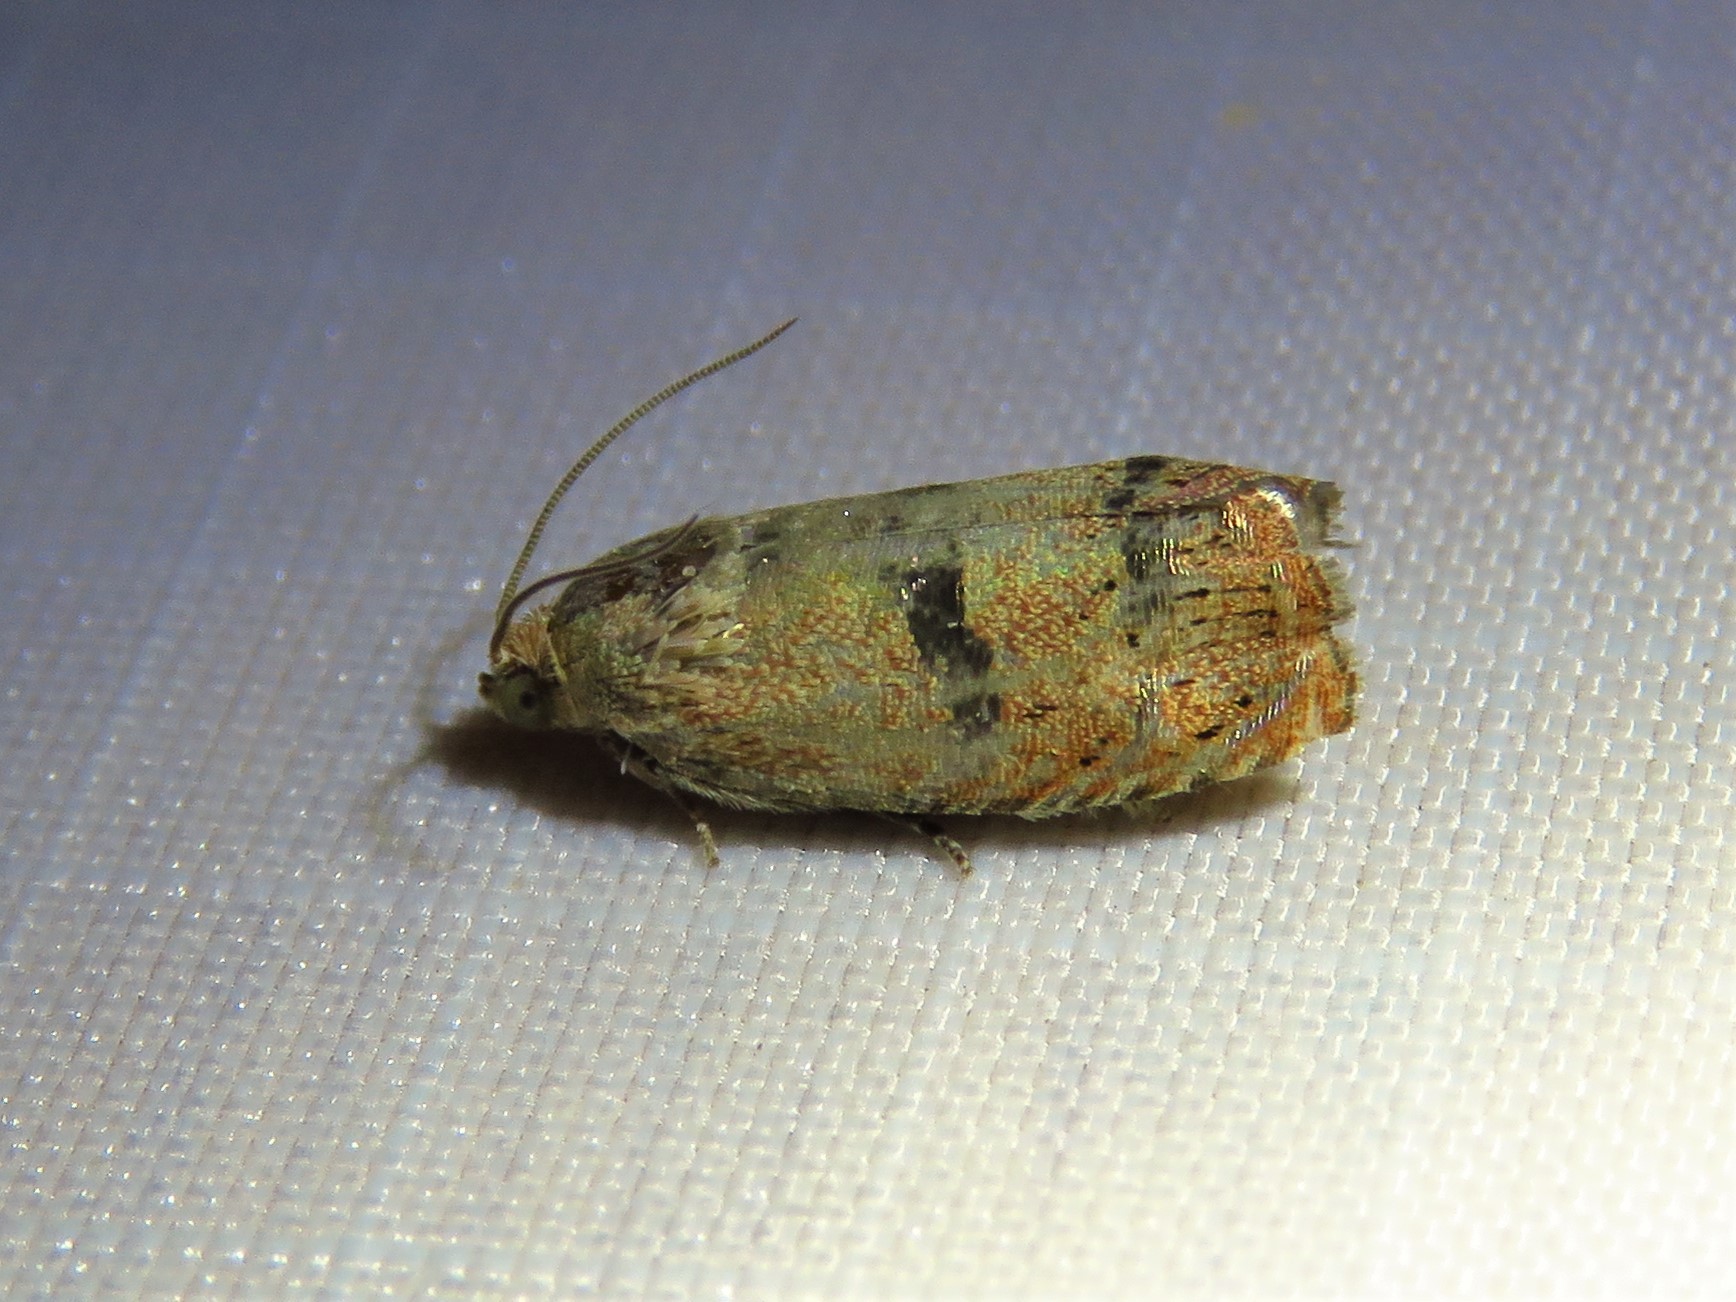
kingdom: Animalia
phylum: Arthropoda
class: Insecta
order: Lepidoptera
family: Tortricidae
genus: Cydia
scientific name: Cydia latiferreana
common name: Filbertworm moth
